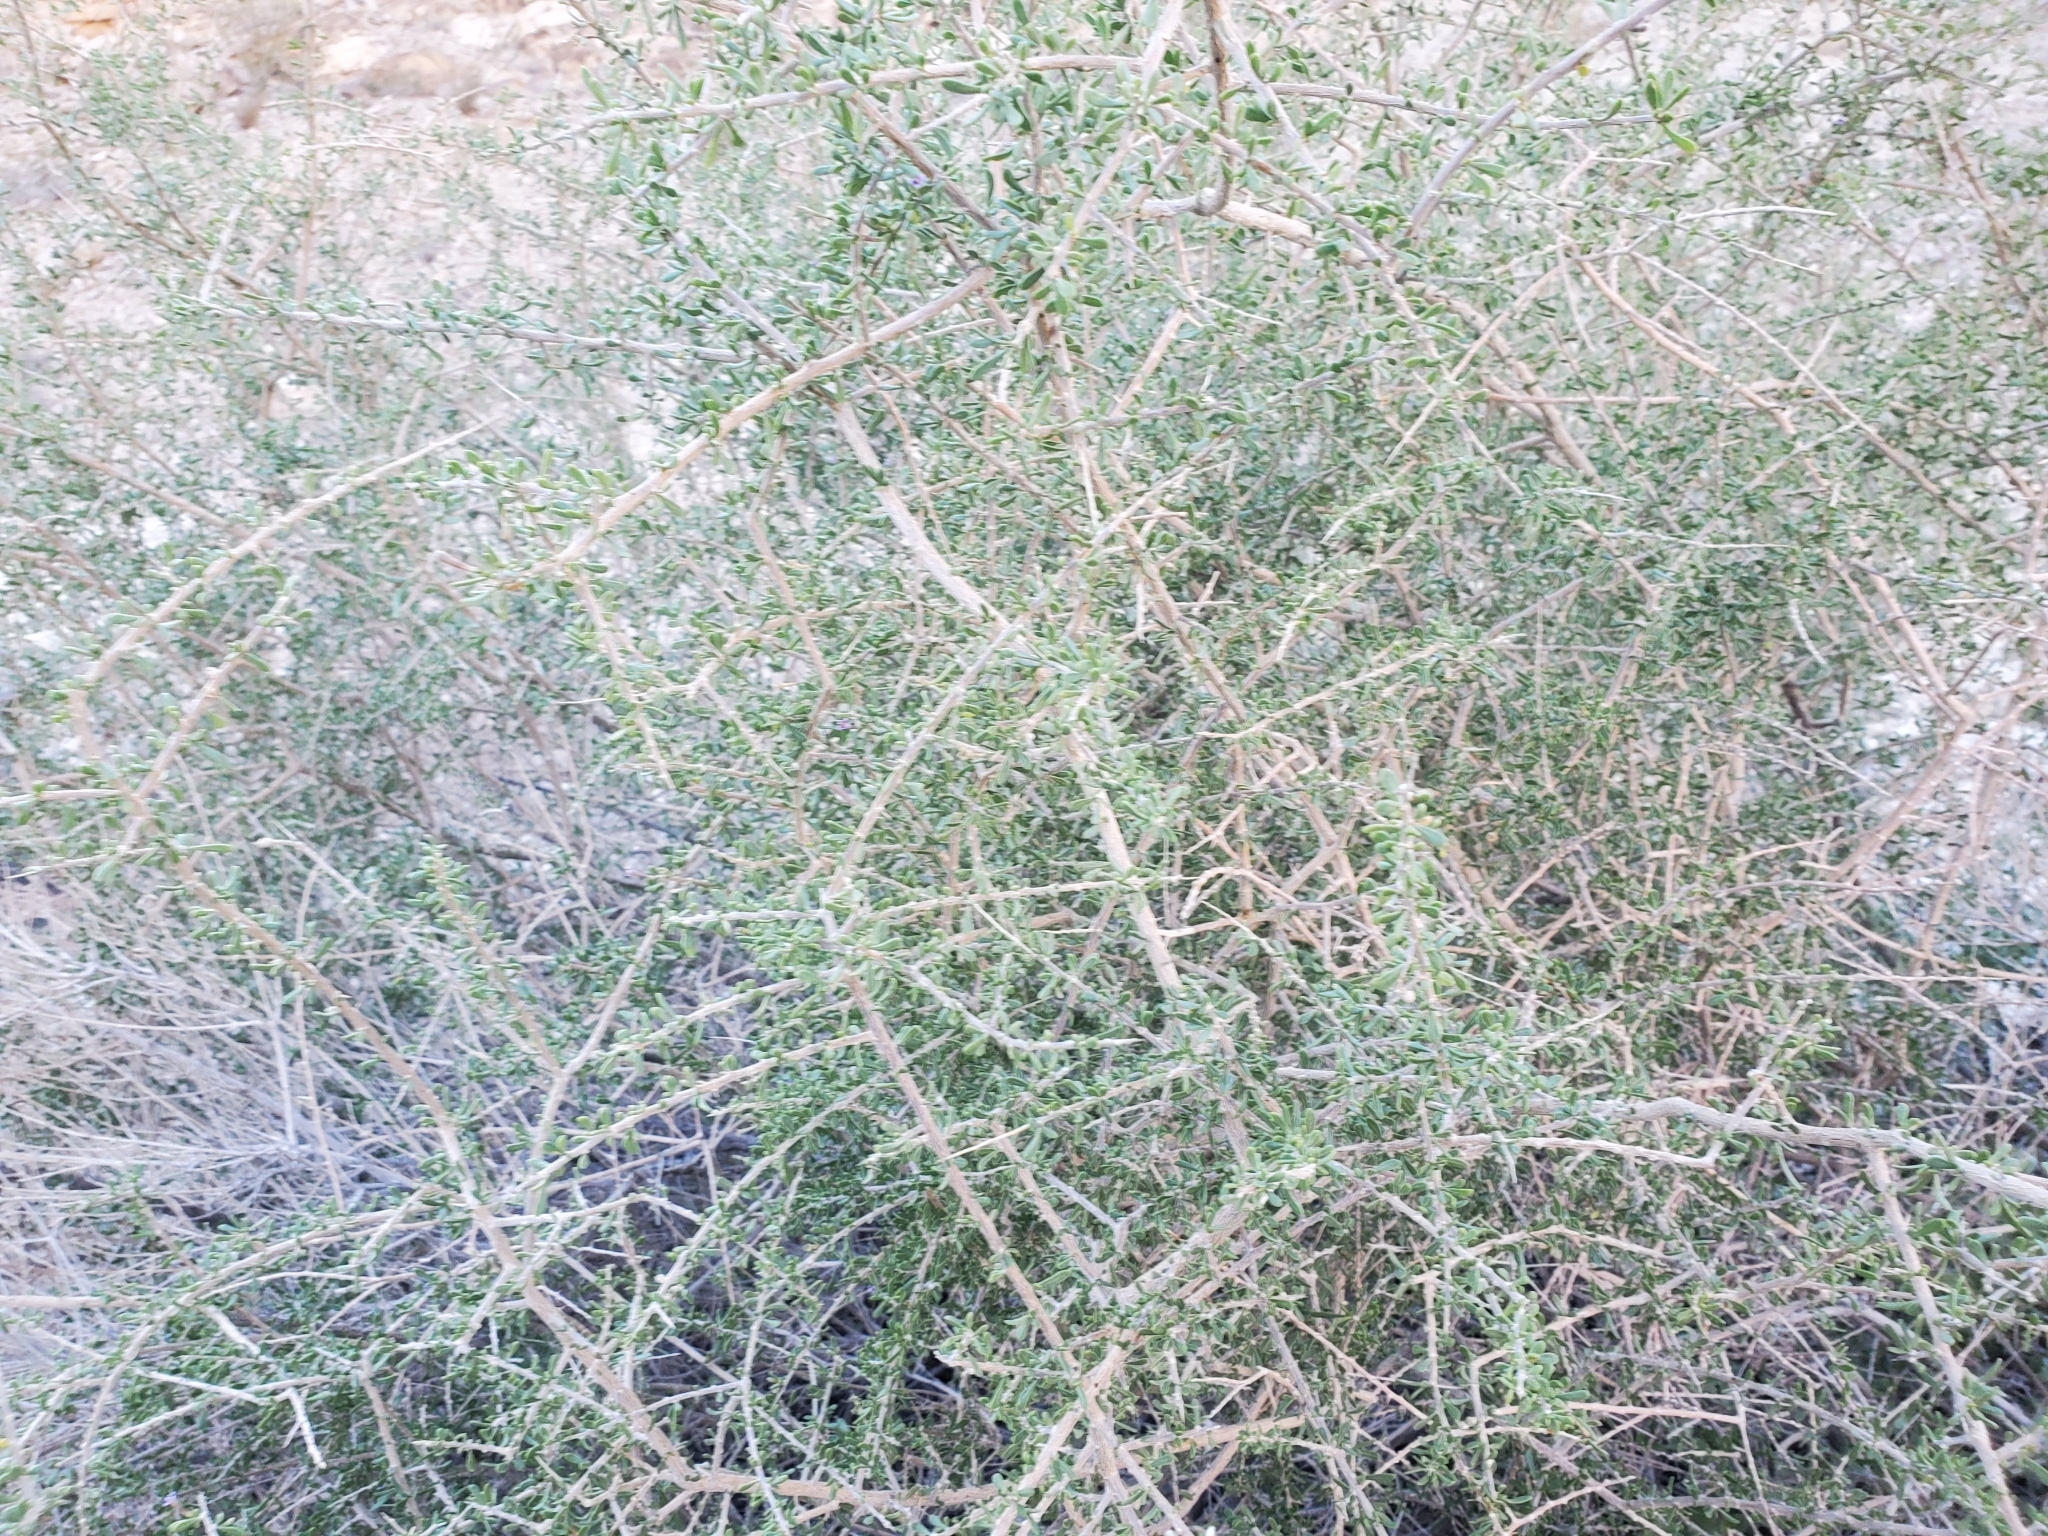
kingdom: Plantae
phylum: Tracheophyta
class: Magnoliopsida
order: Solanales
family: Solanaceae
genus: Lycium
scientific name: Lycium andersonii
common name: Water-jacket
